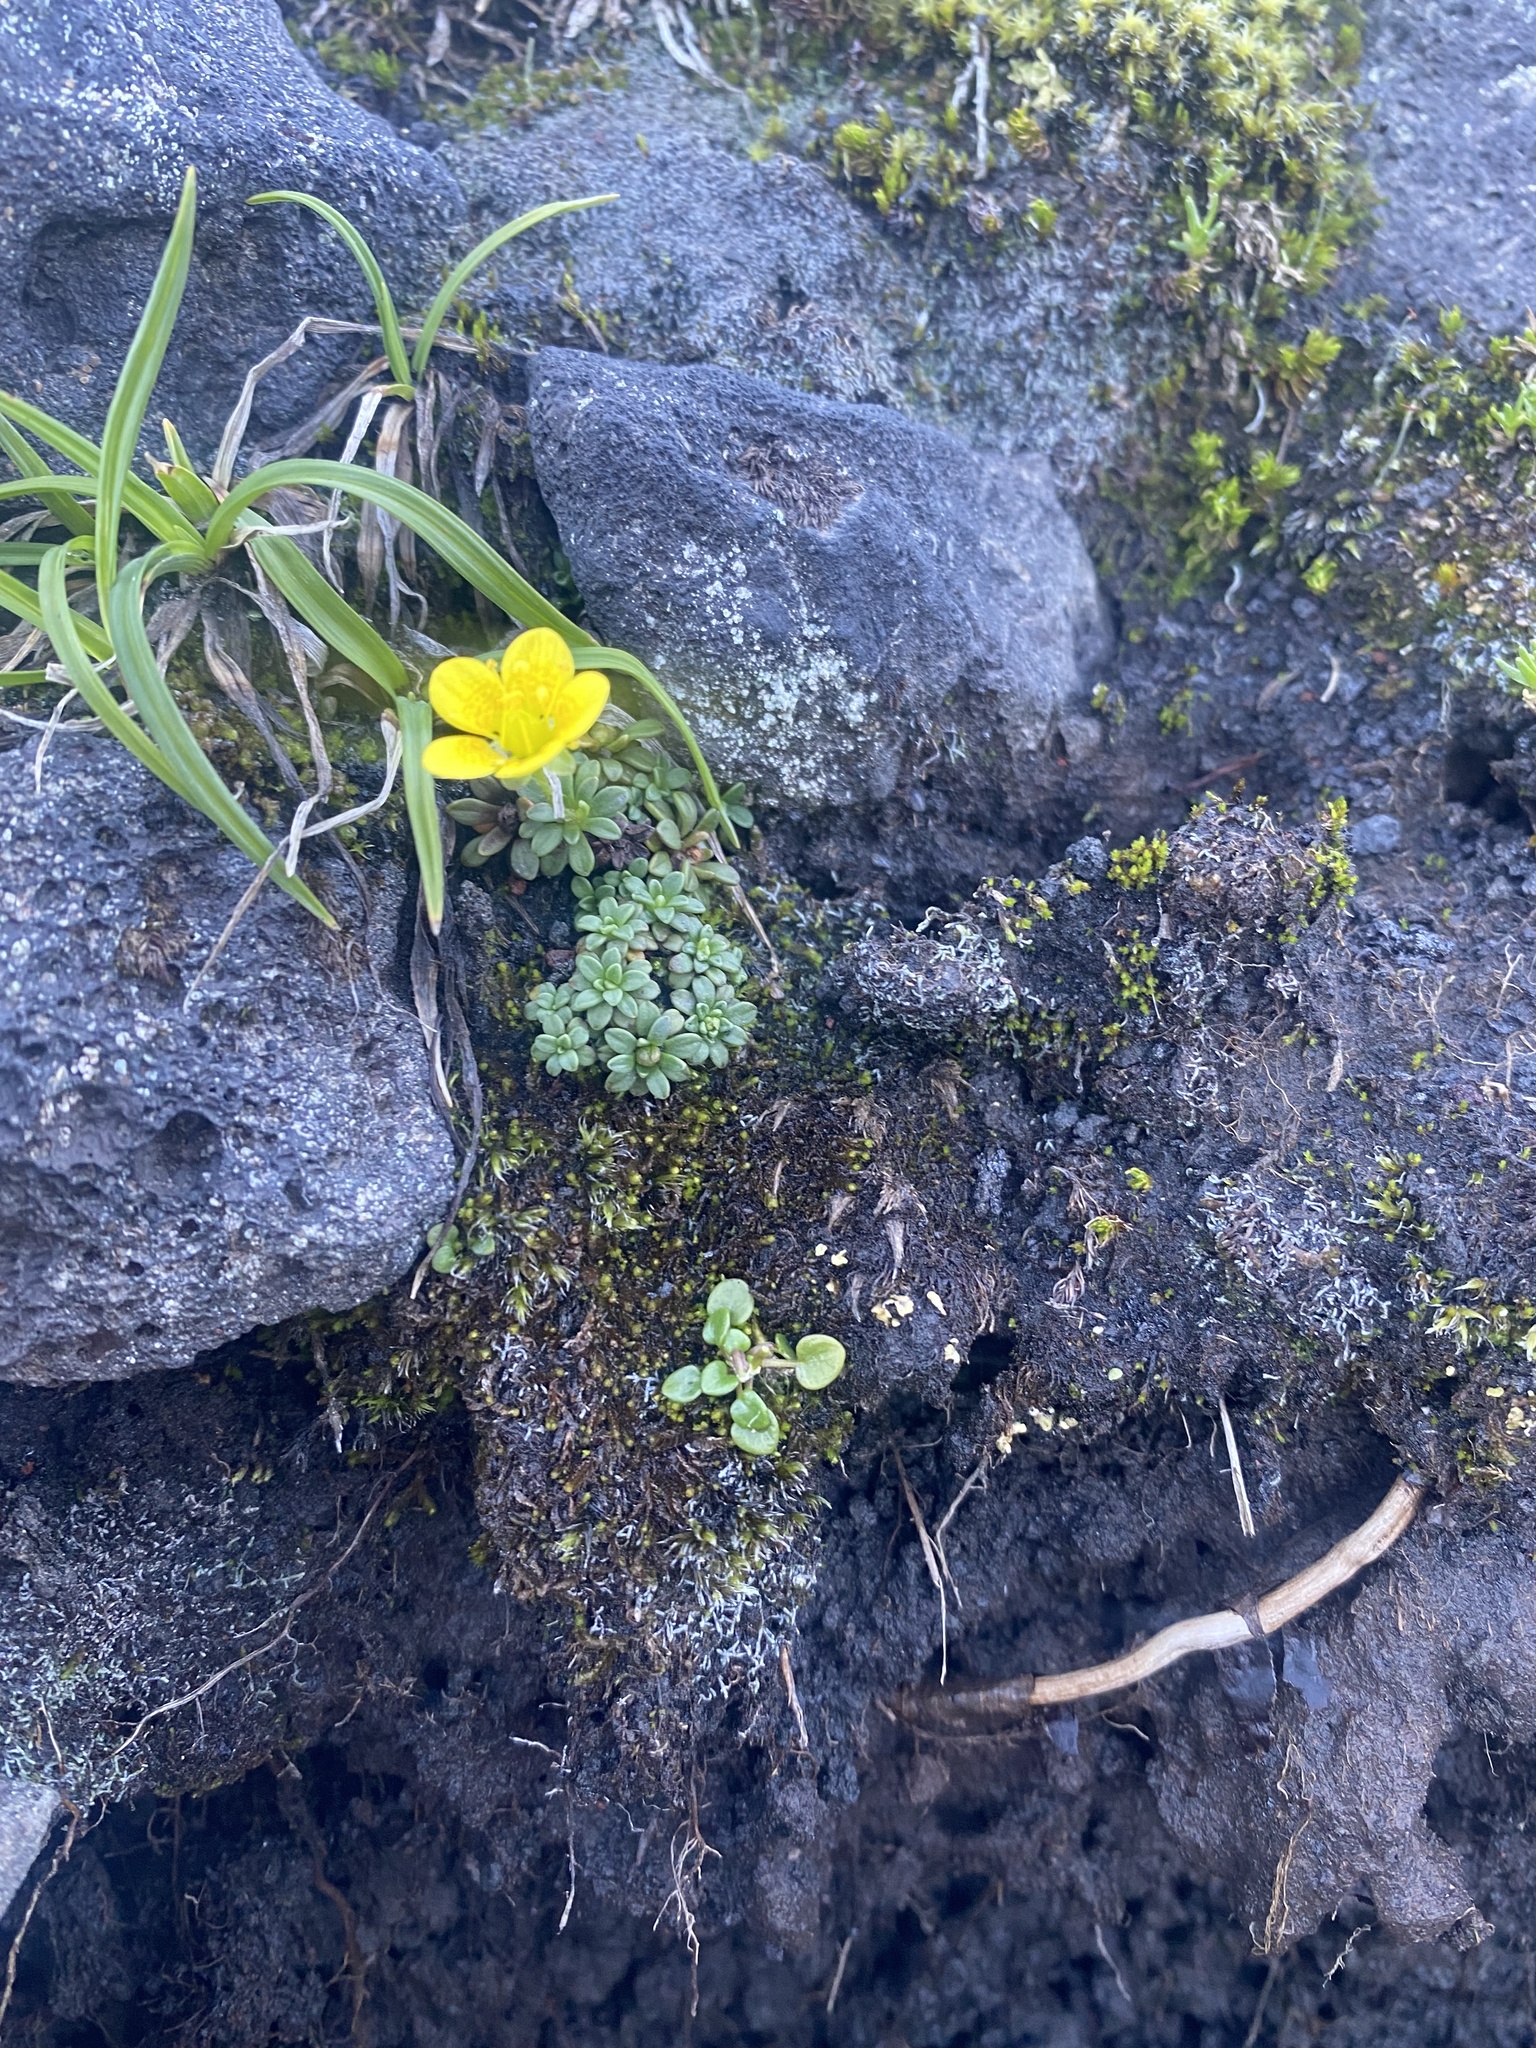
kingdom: Plantae
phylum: Tracheophyta
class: Magnoliopsida
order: Saxifragales
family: Saxifragaceae
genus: Saxifraga
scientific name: Saxifraga serpyllifolia
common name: Thyme-leaved saxifrage
